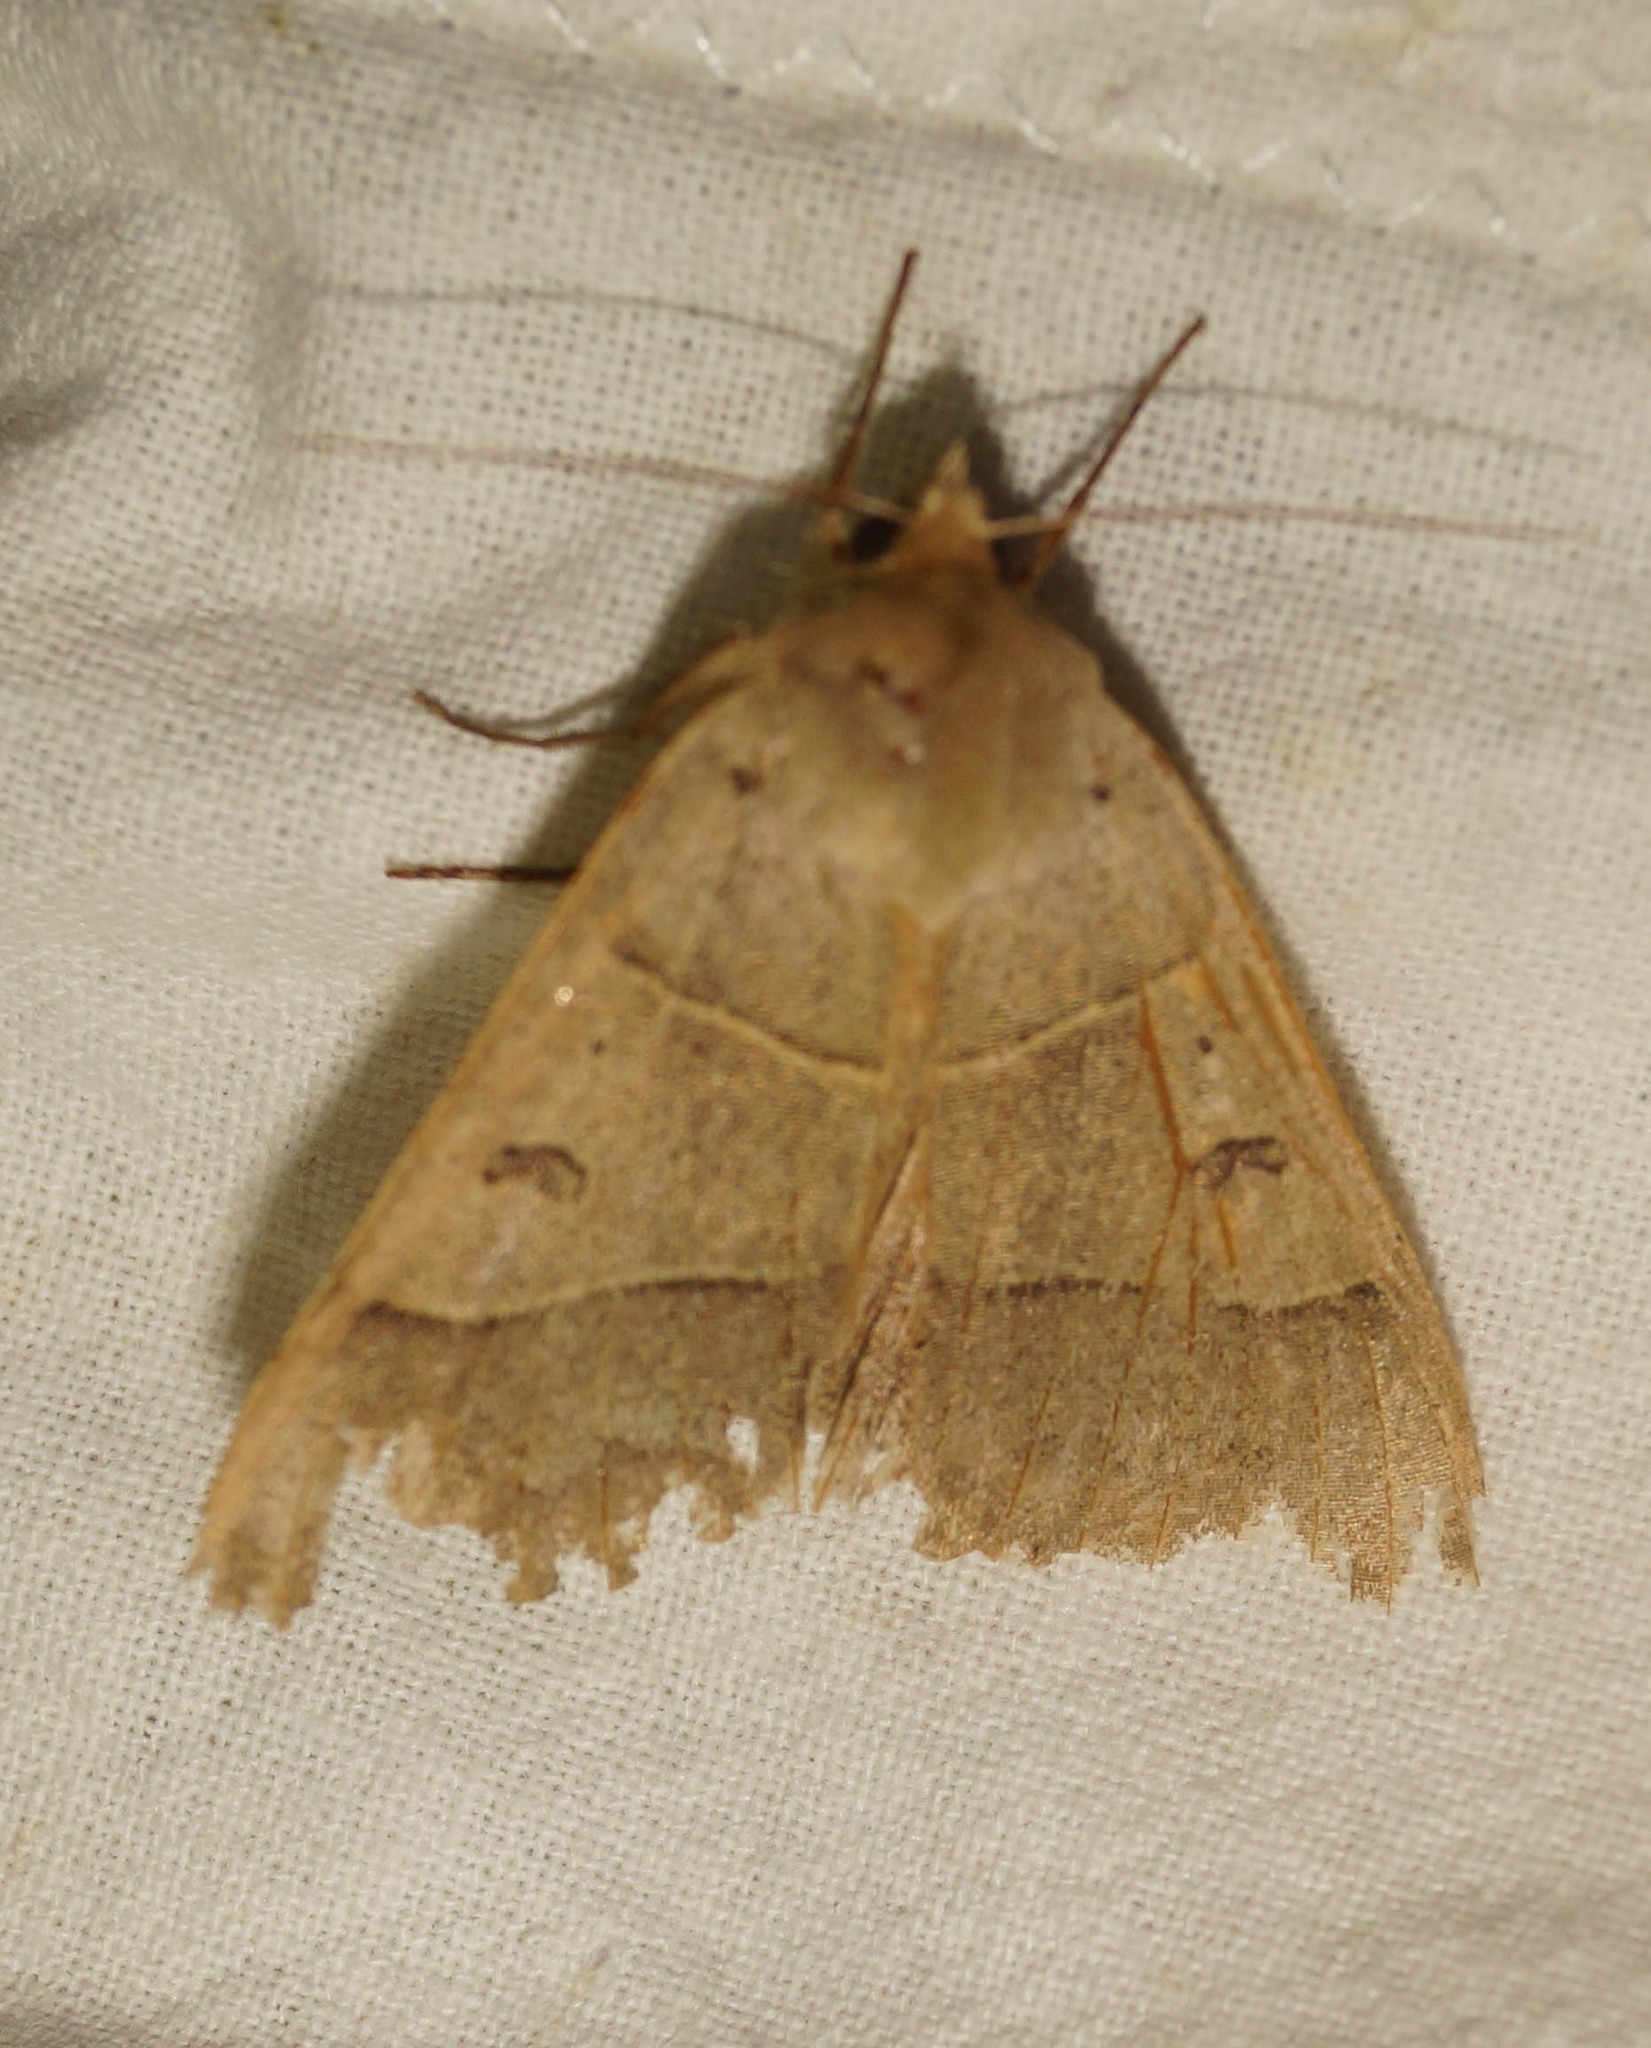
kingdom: Animalia
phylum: Arthropoda
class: Insecta
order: Lepidoptera
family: Erebidae
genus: Minucia
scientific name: Minucia lunaris
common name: Lunar double-stripe
